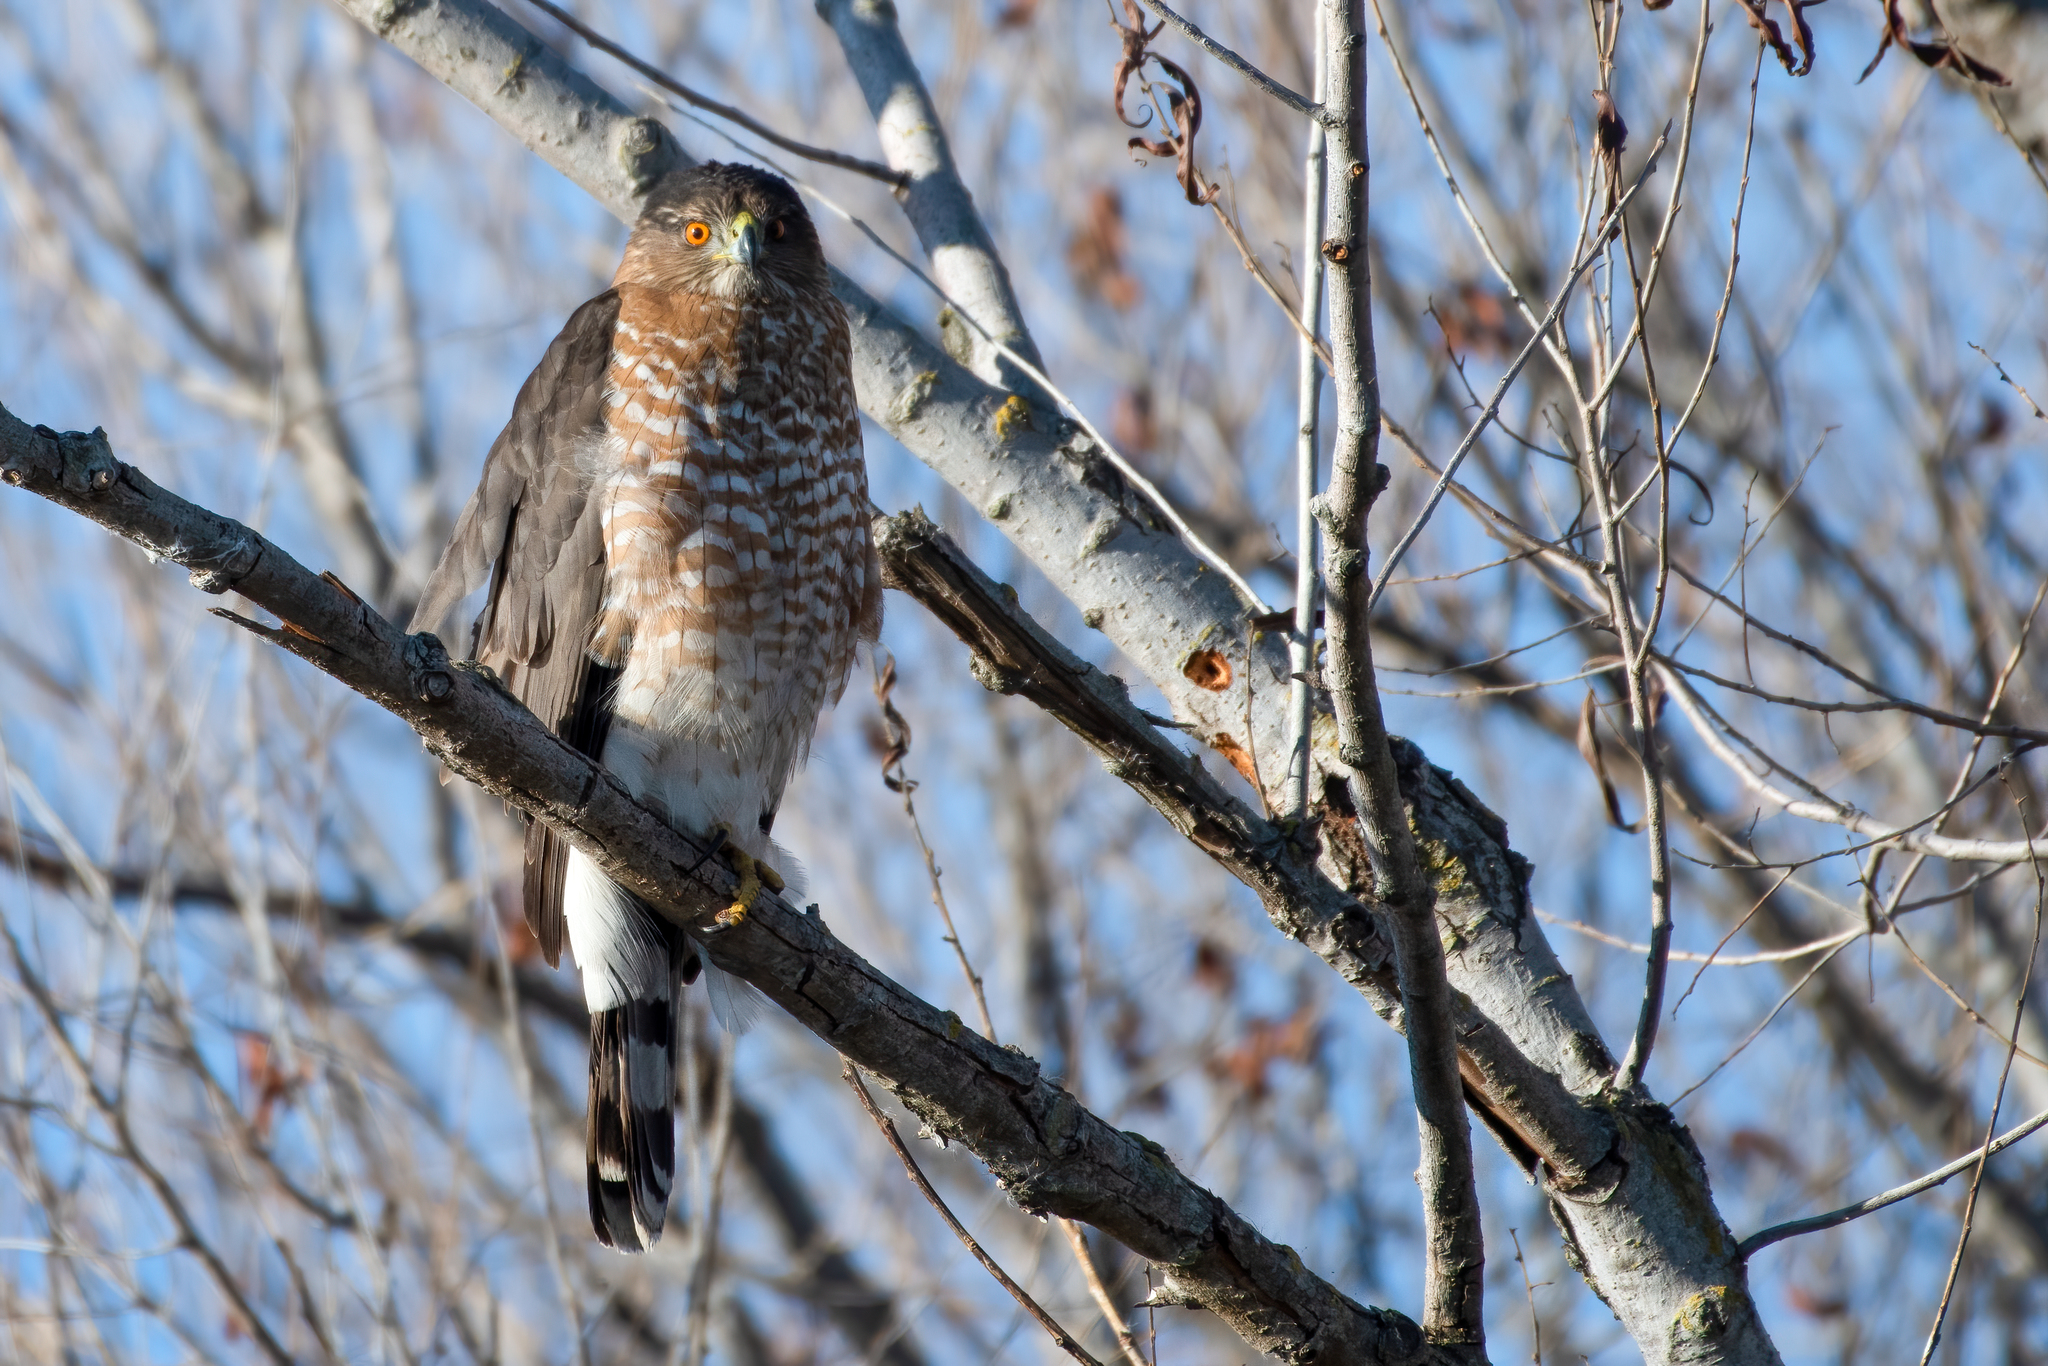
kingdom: Animalia
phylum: Chordata
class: Aves
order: Accipitriformes
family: Accipitridae
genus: Accipiter
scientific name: Accipiter cooperii
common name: Cooper's hawk
